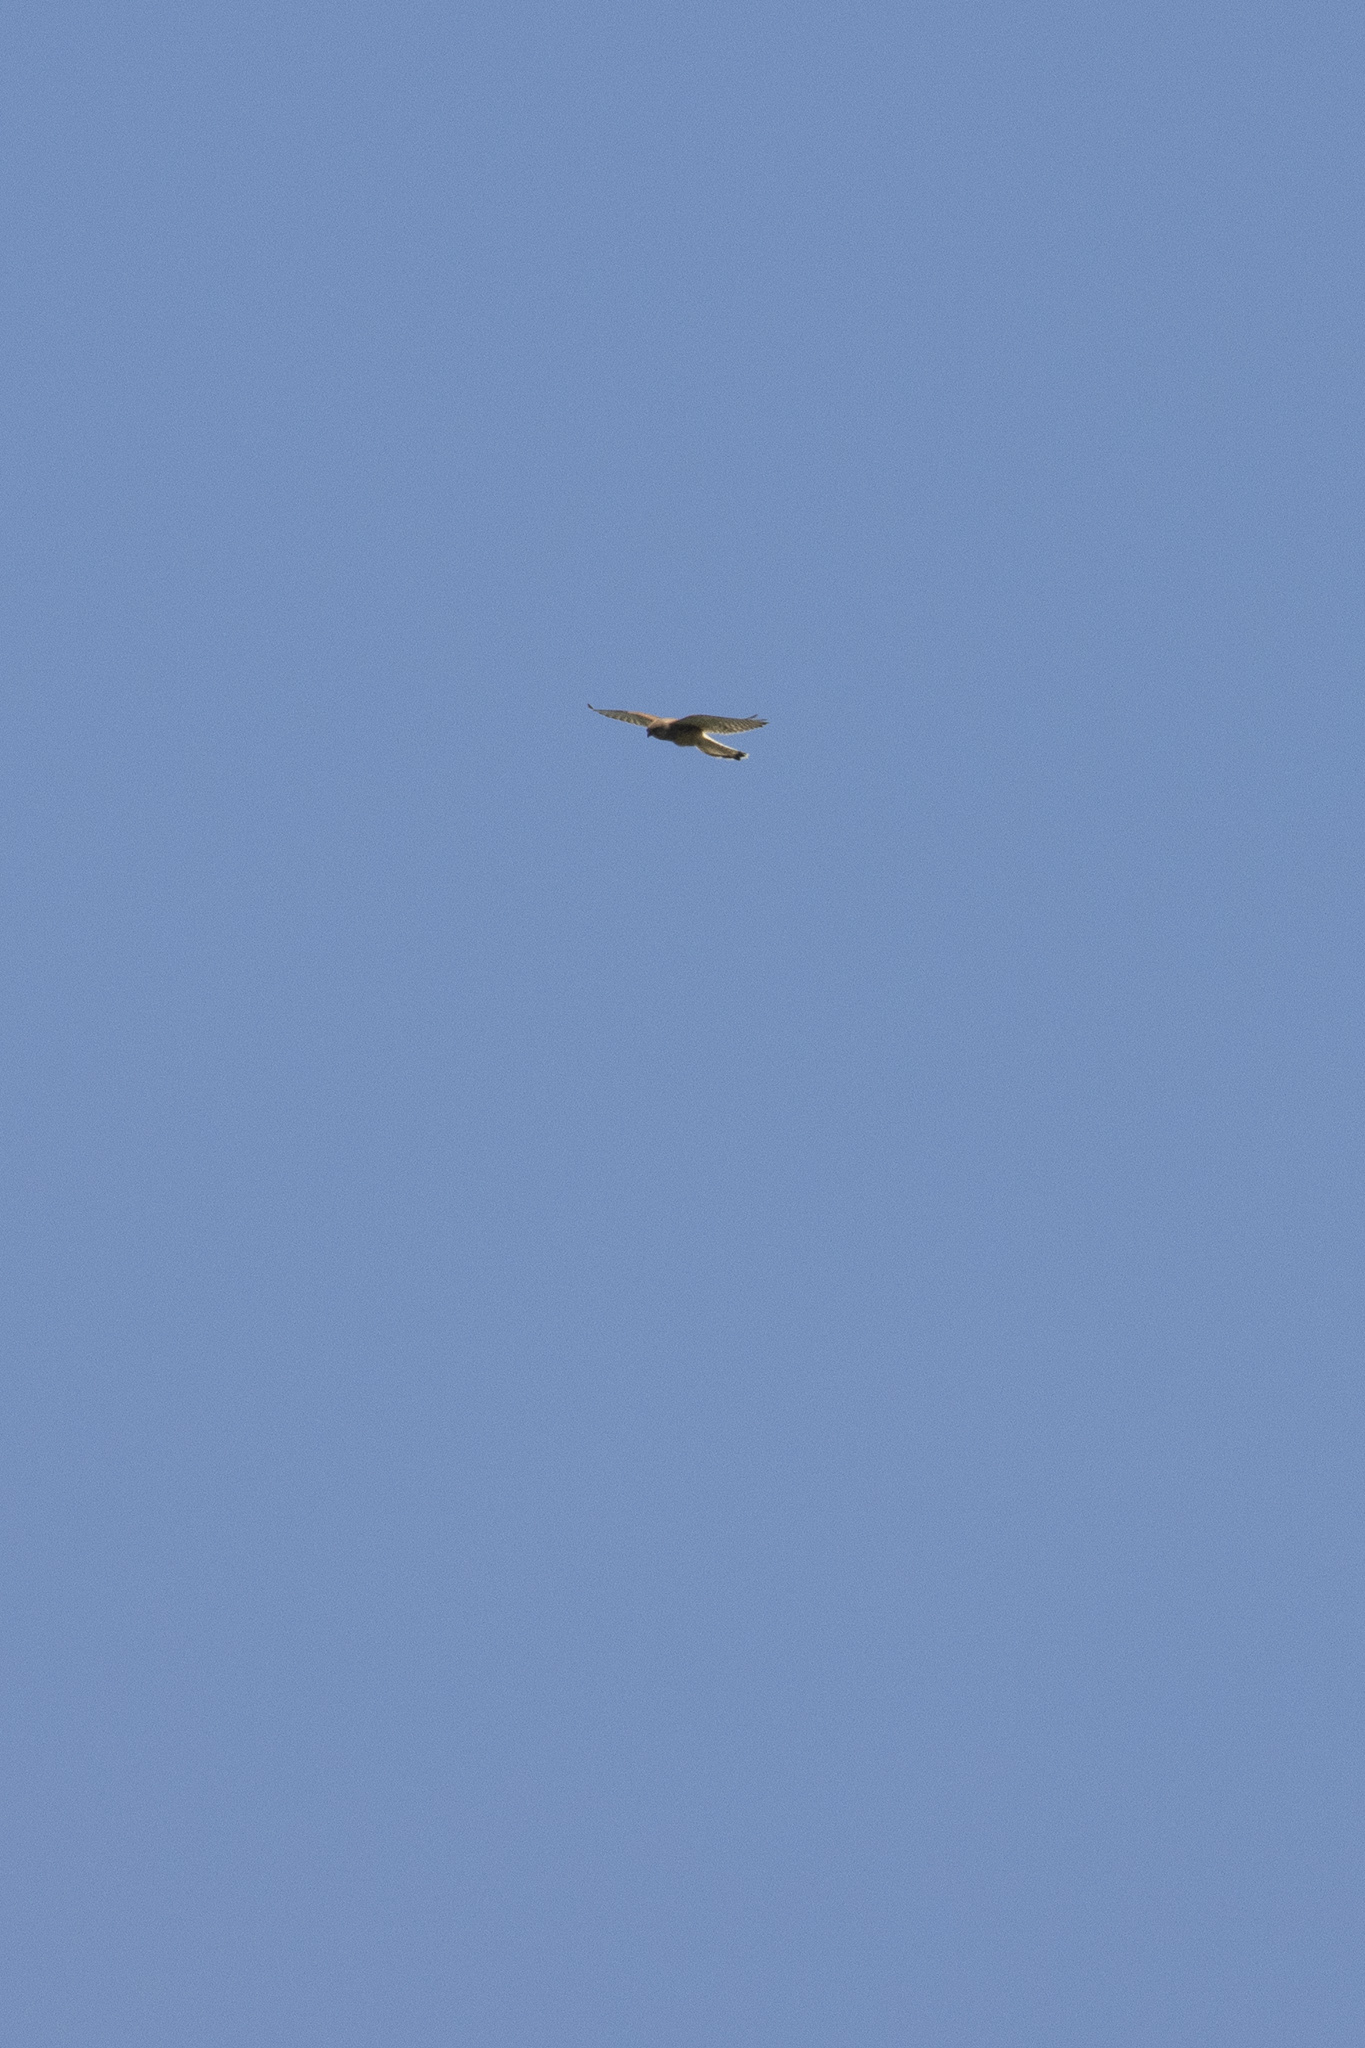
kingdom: Animalia
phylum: Chordata
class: Aves
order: Falconiformes
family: Falconidae
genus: Falco
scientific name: Falco tinnunculus
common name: Common kestrel
